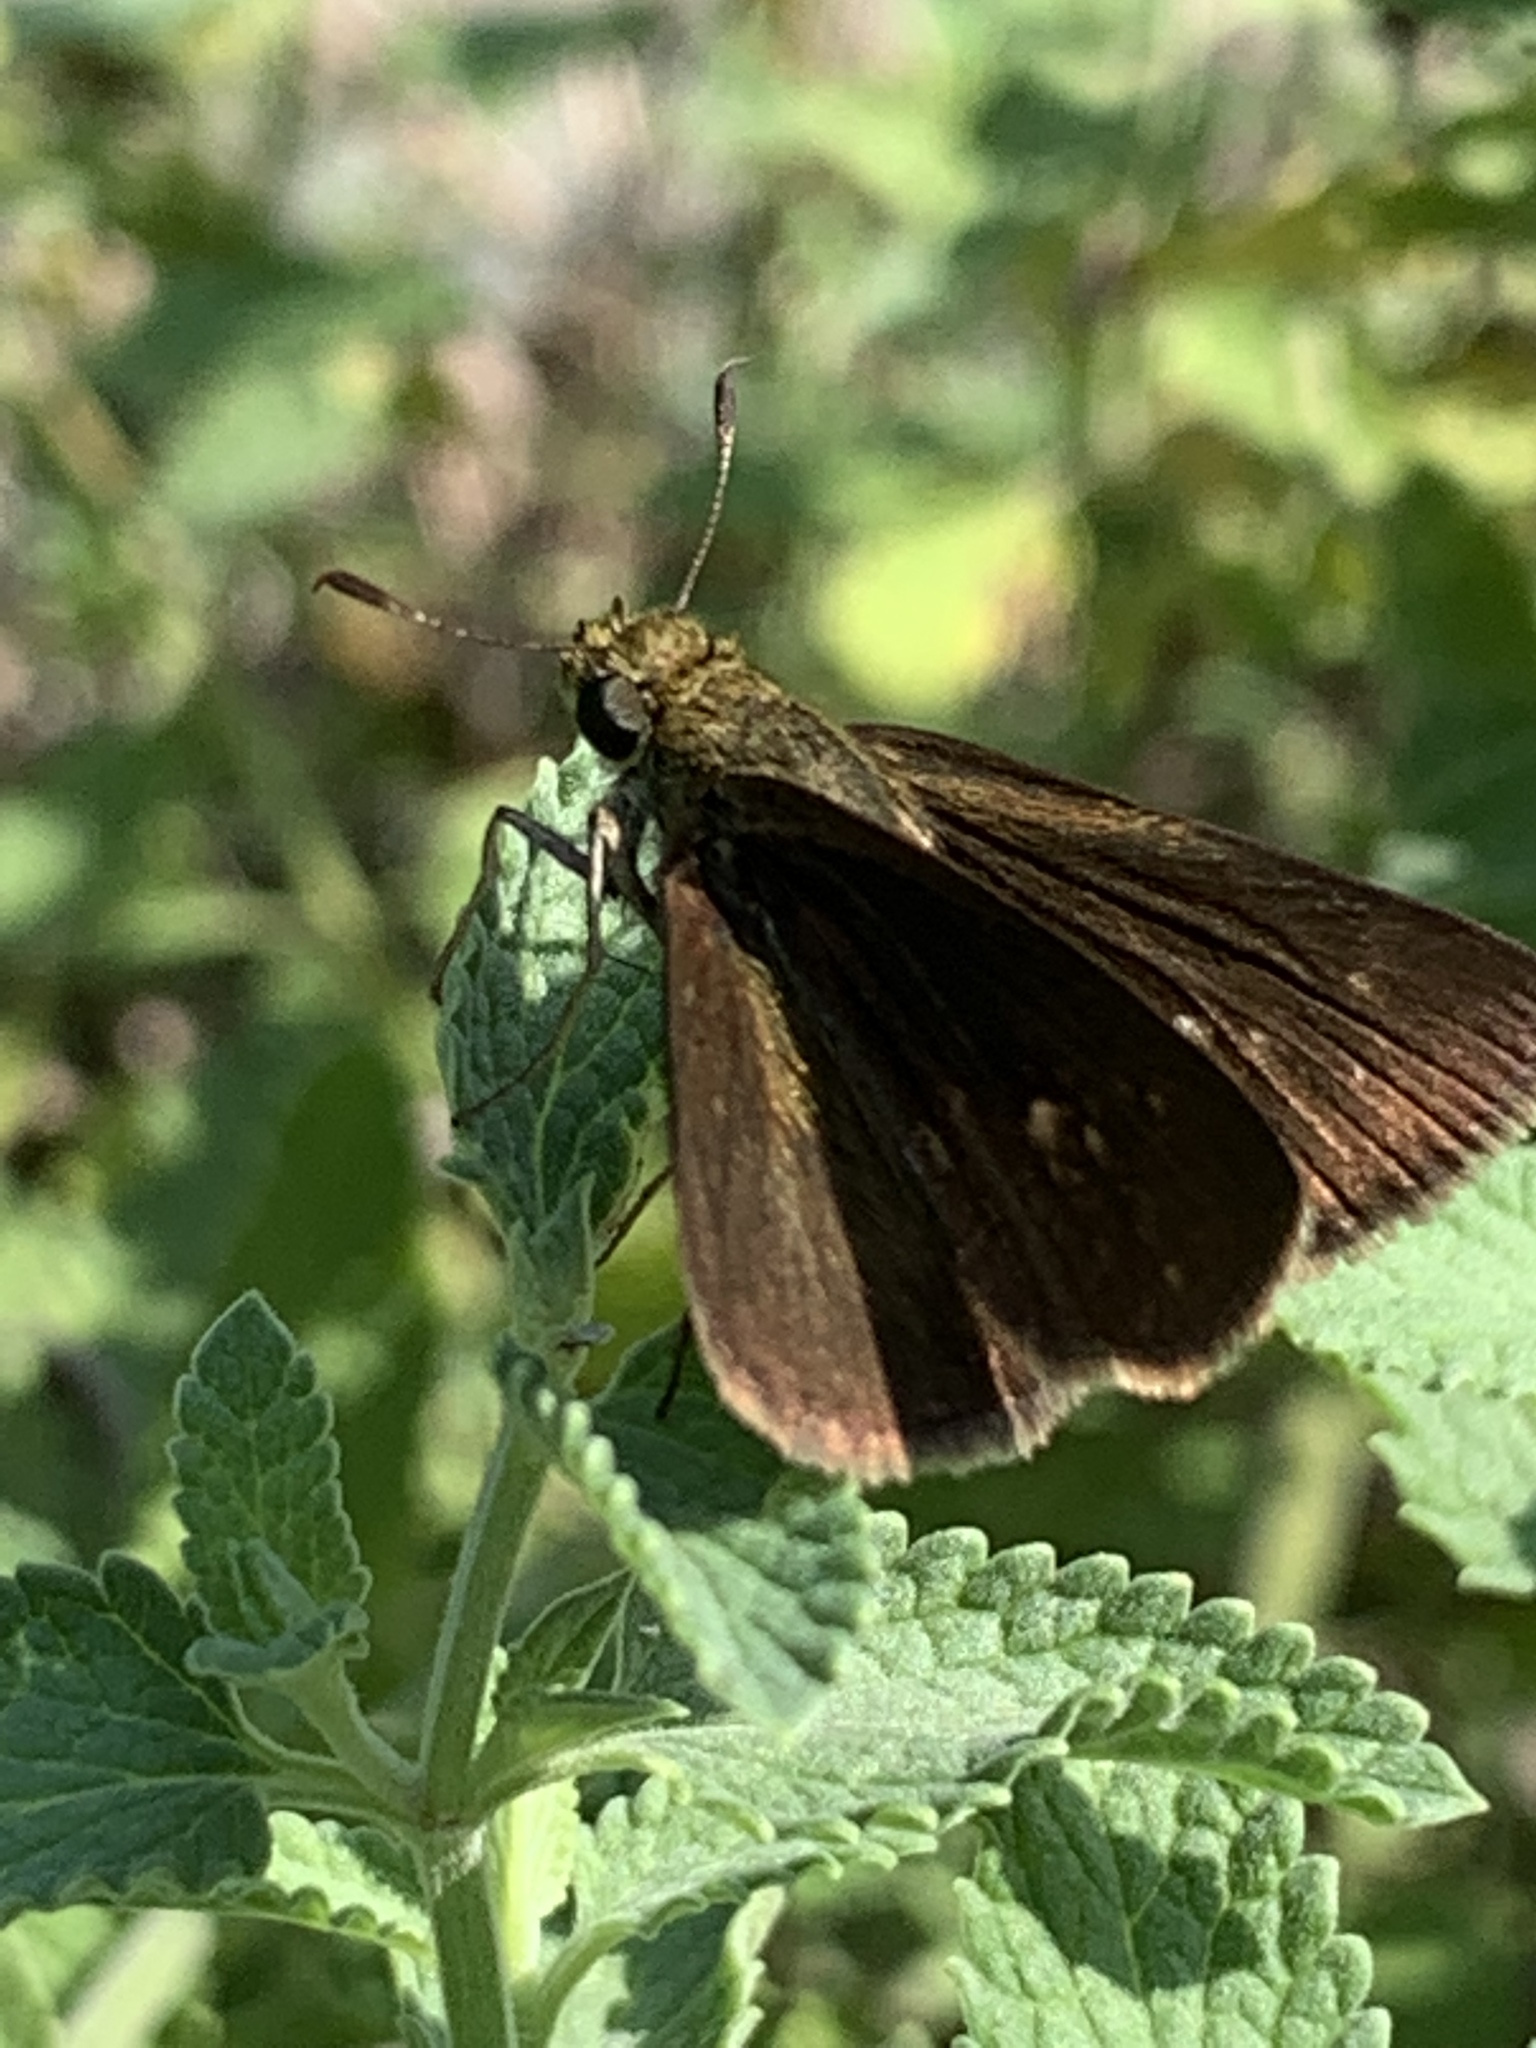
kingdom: Animalia
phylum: Arthropoda
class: Insecta
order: Lepidoptera
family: Hesperiidae
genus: Euphyes
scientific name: Euphyes vestris
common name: Dun skipper
